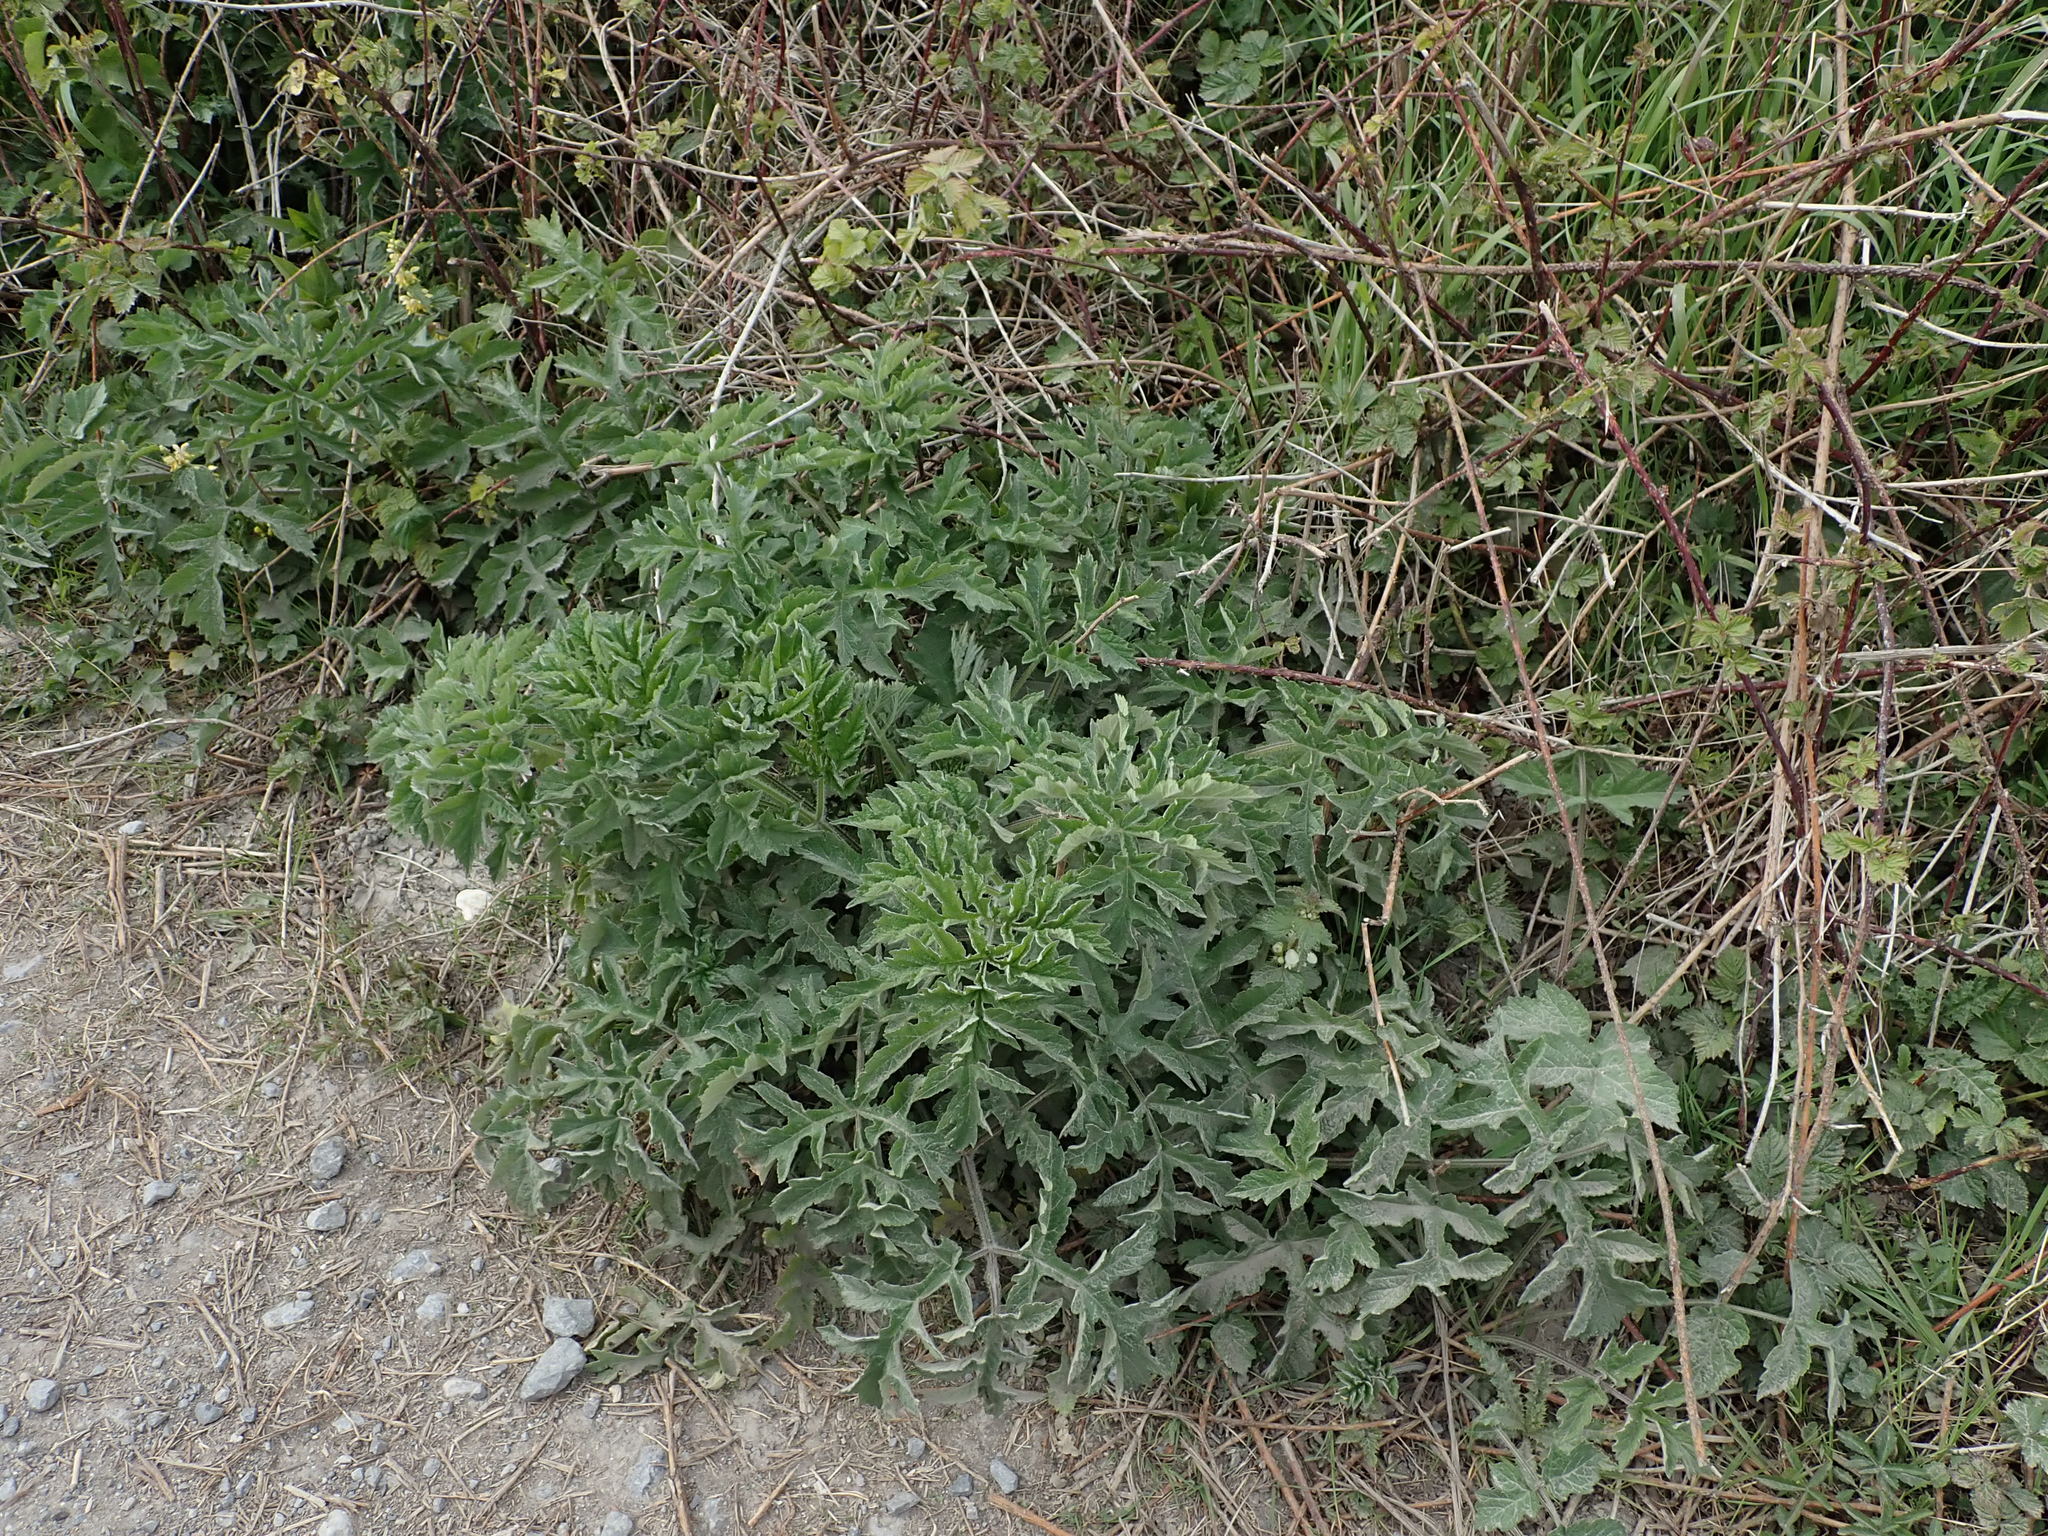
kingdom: Plantae
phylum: Tracheophyta
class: Magnoliopsida
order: Apiales
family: Apiaceae
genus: Heracleum
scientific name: Heracleum sphondylium
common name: Hogweed
